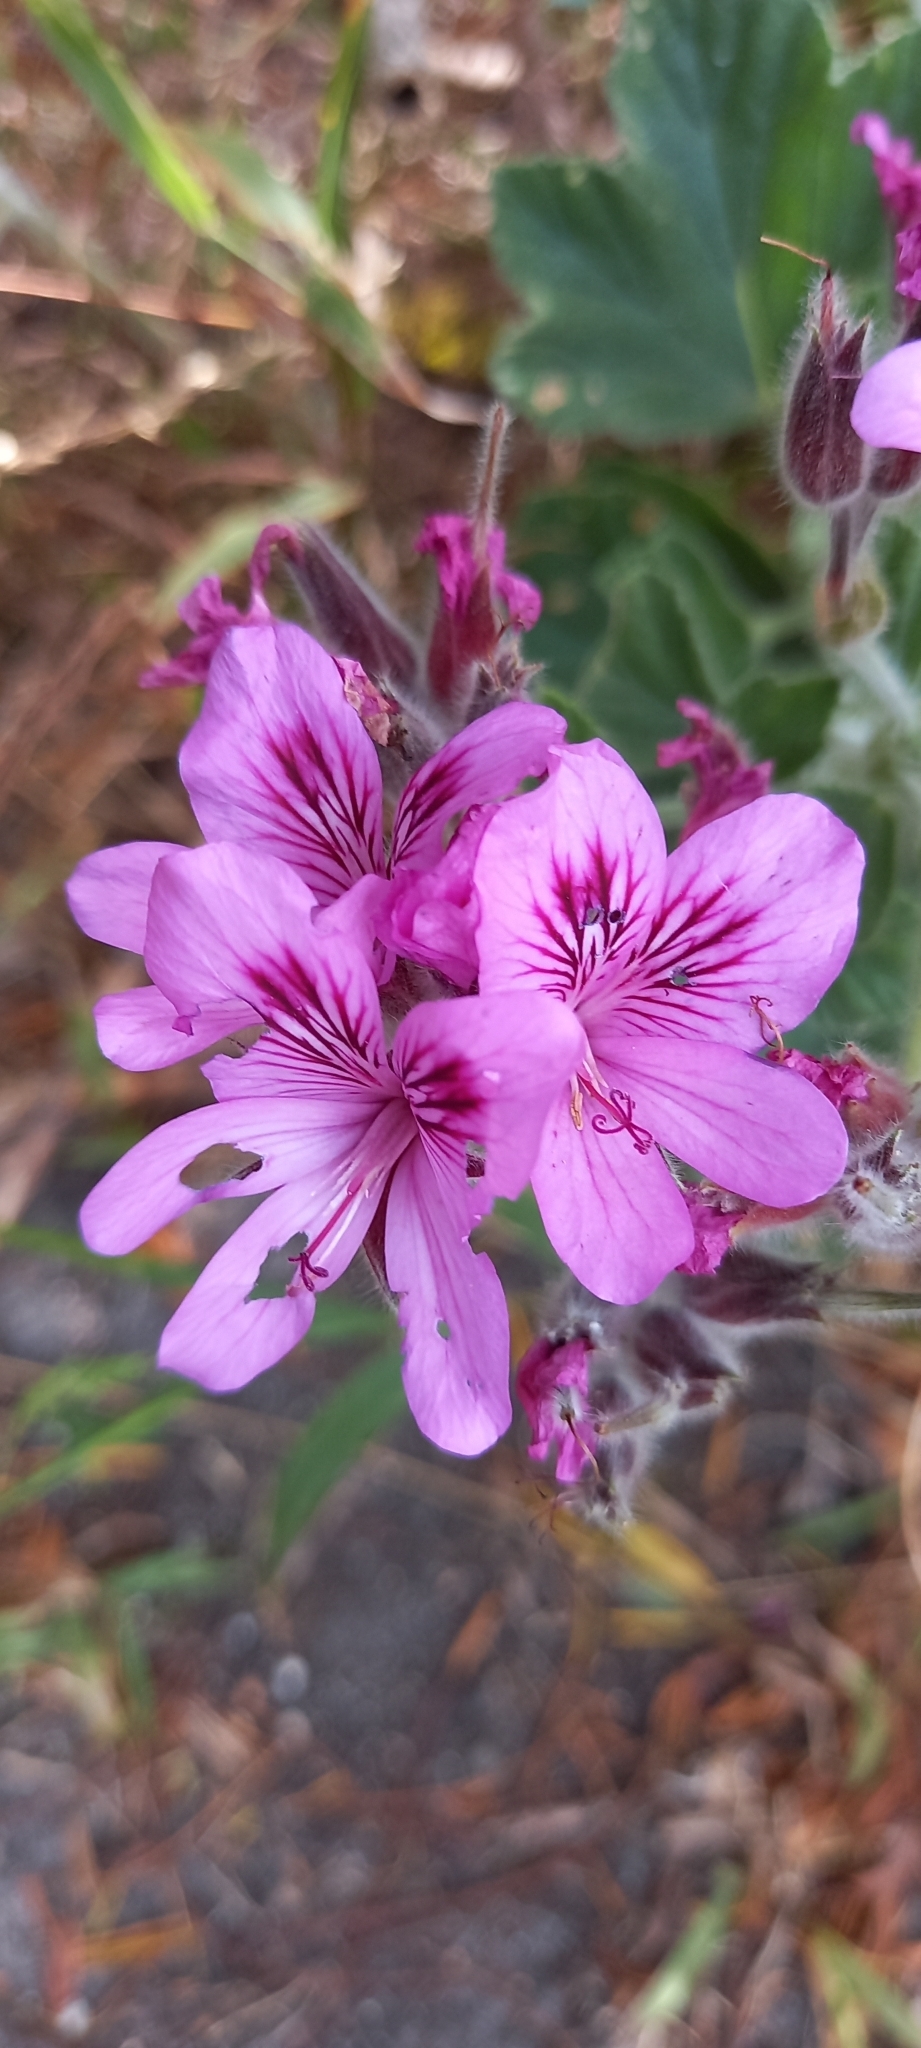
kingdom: Plantae
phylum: Tracheophyta
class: Magnoliopsida
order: Geraniales
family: Geraniaceae
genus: Pelargonium
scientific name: Pelargonium cucullatum
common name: Tree pelargonium
